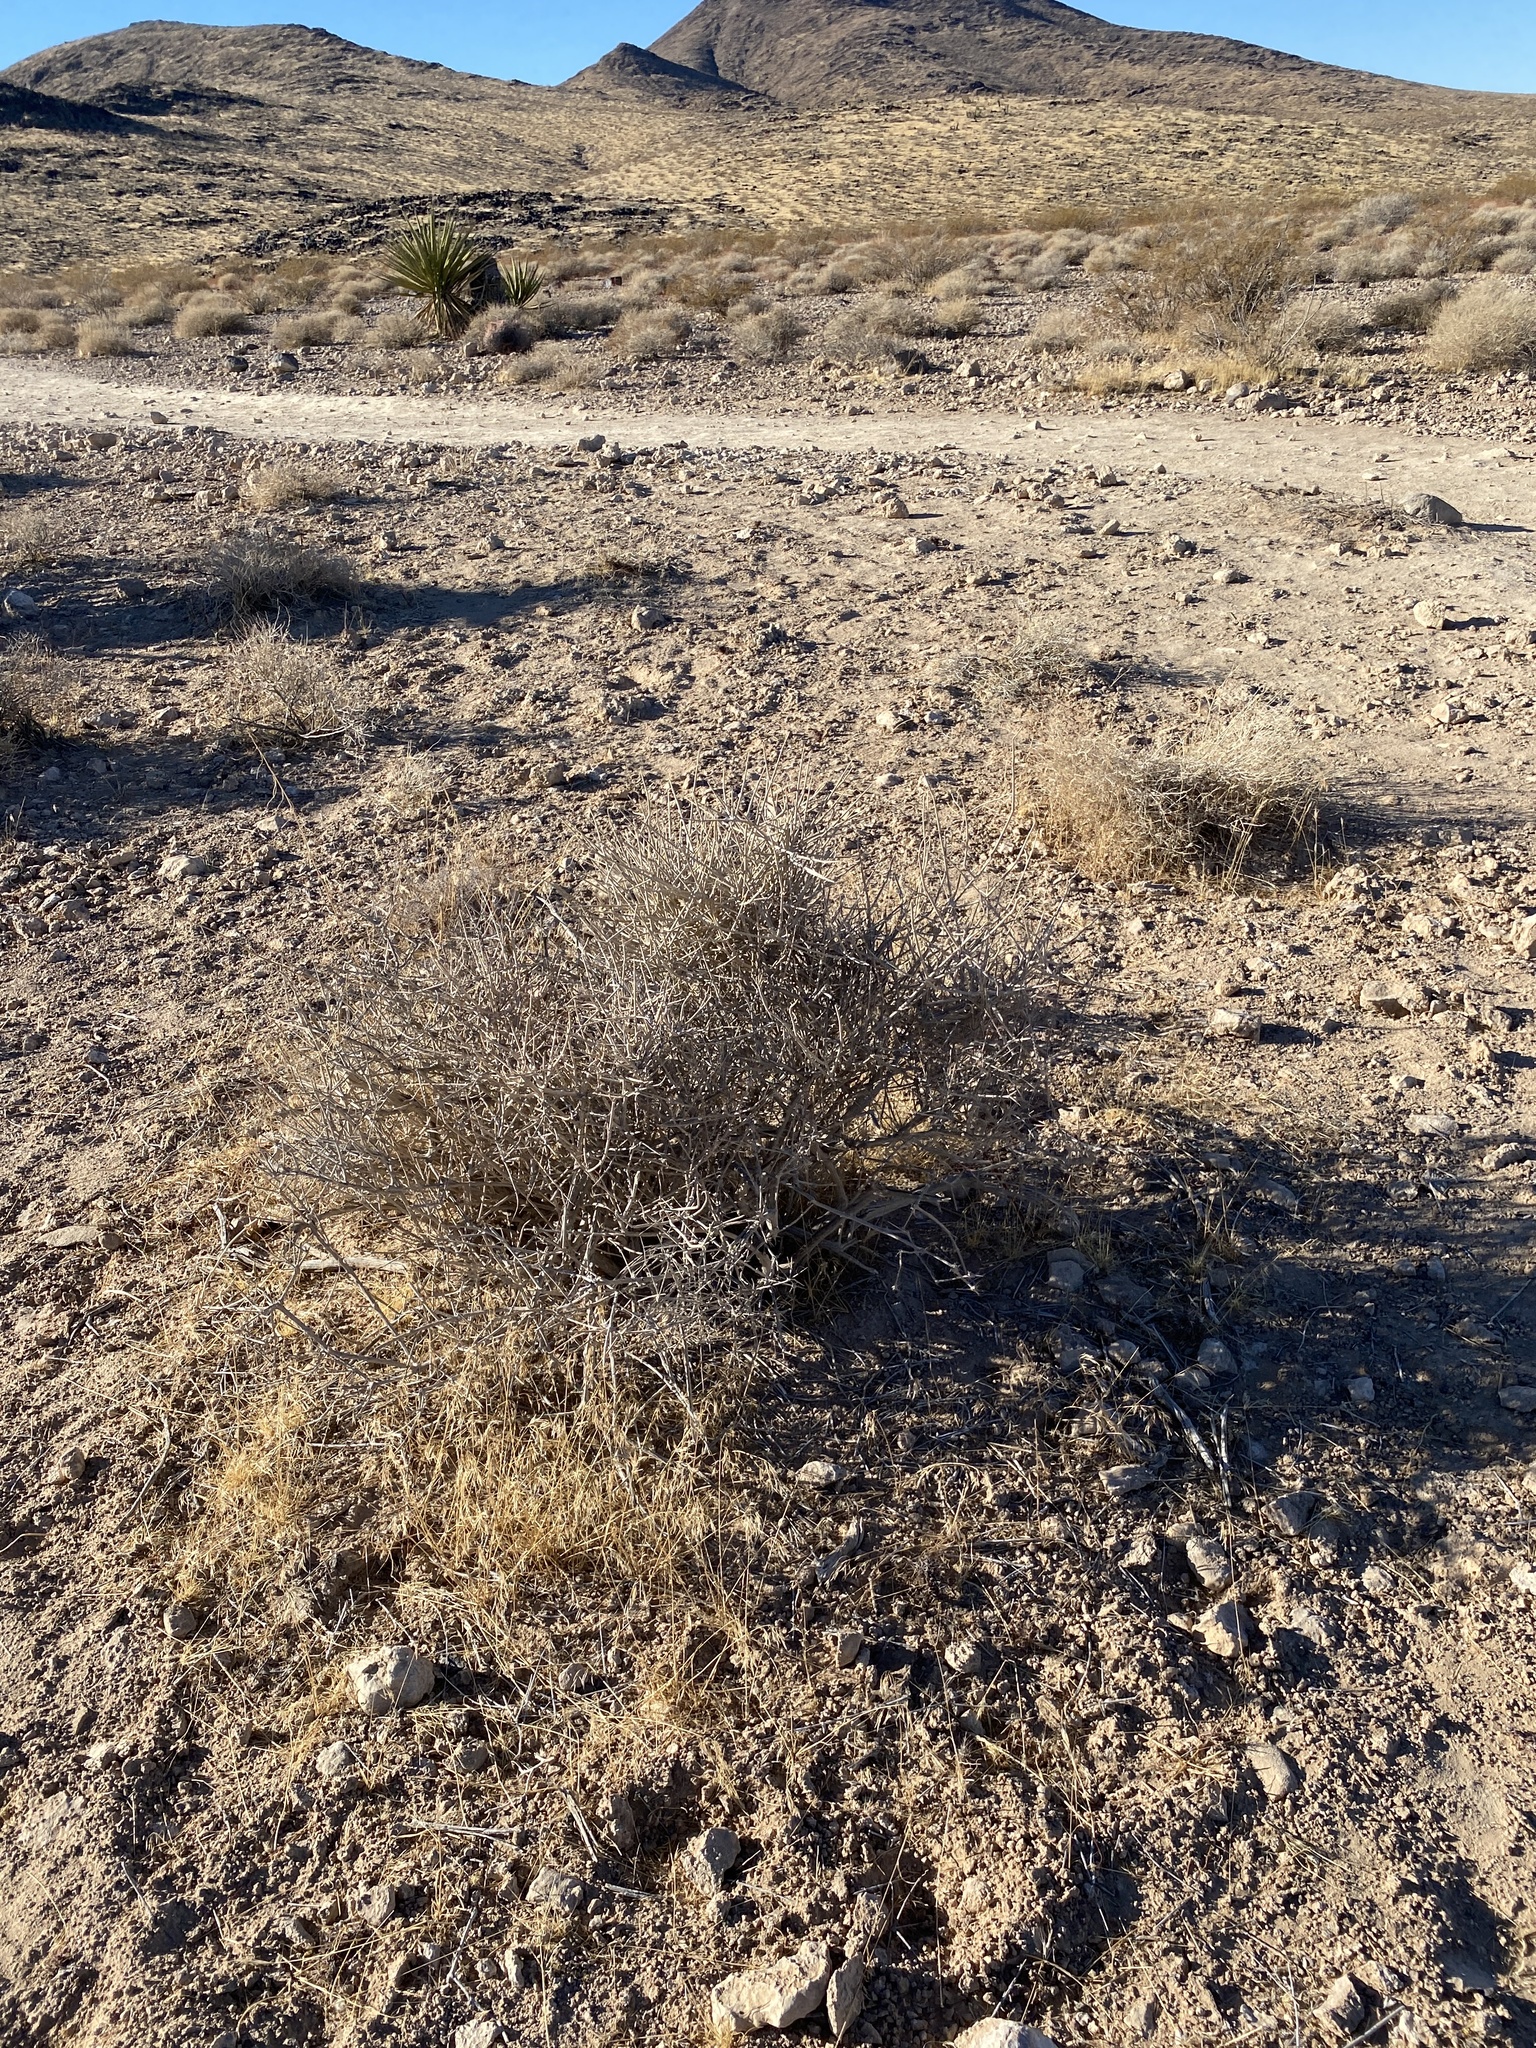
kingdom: Plantae
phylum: Tracheophyta
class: Gnetopsida
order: Ephedrales
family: Ephedraceae
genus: Ephedra
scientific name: Ephedra nevadensis
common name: Gray ephedra
